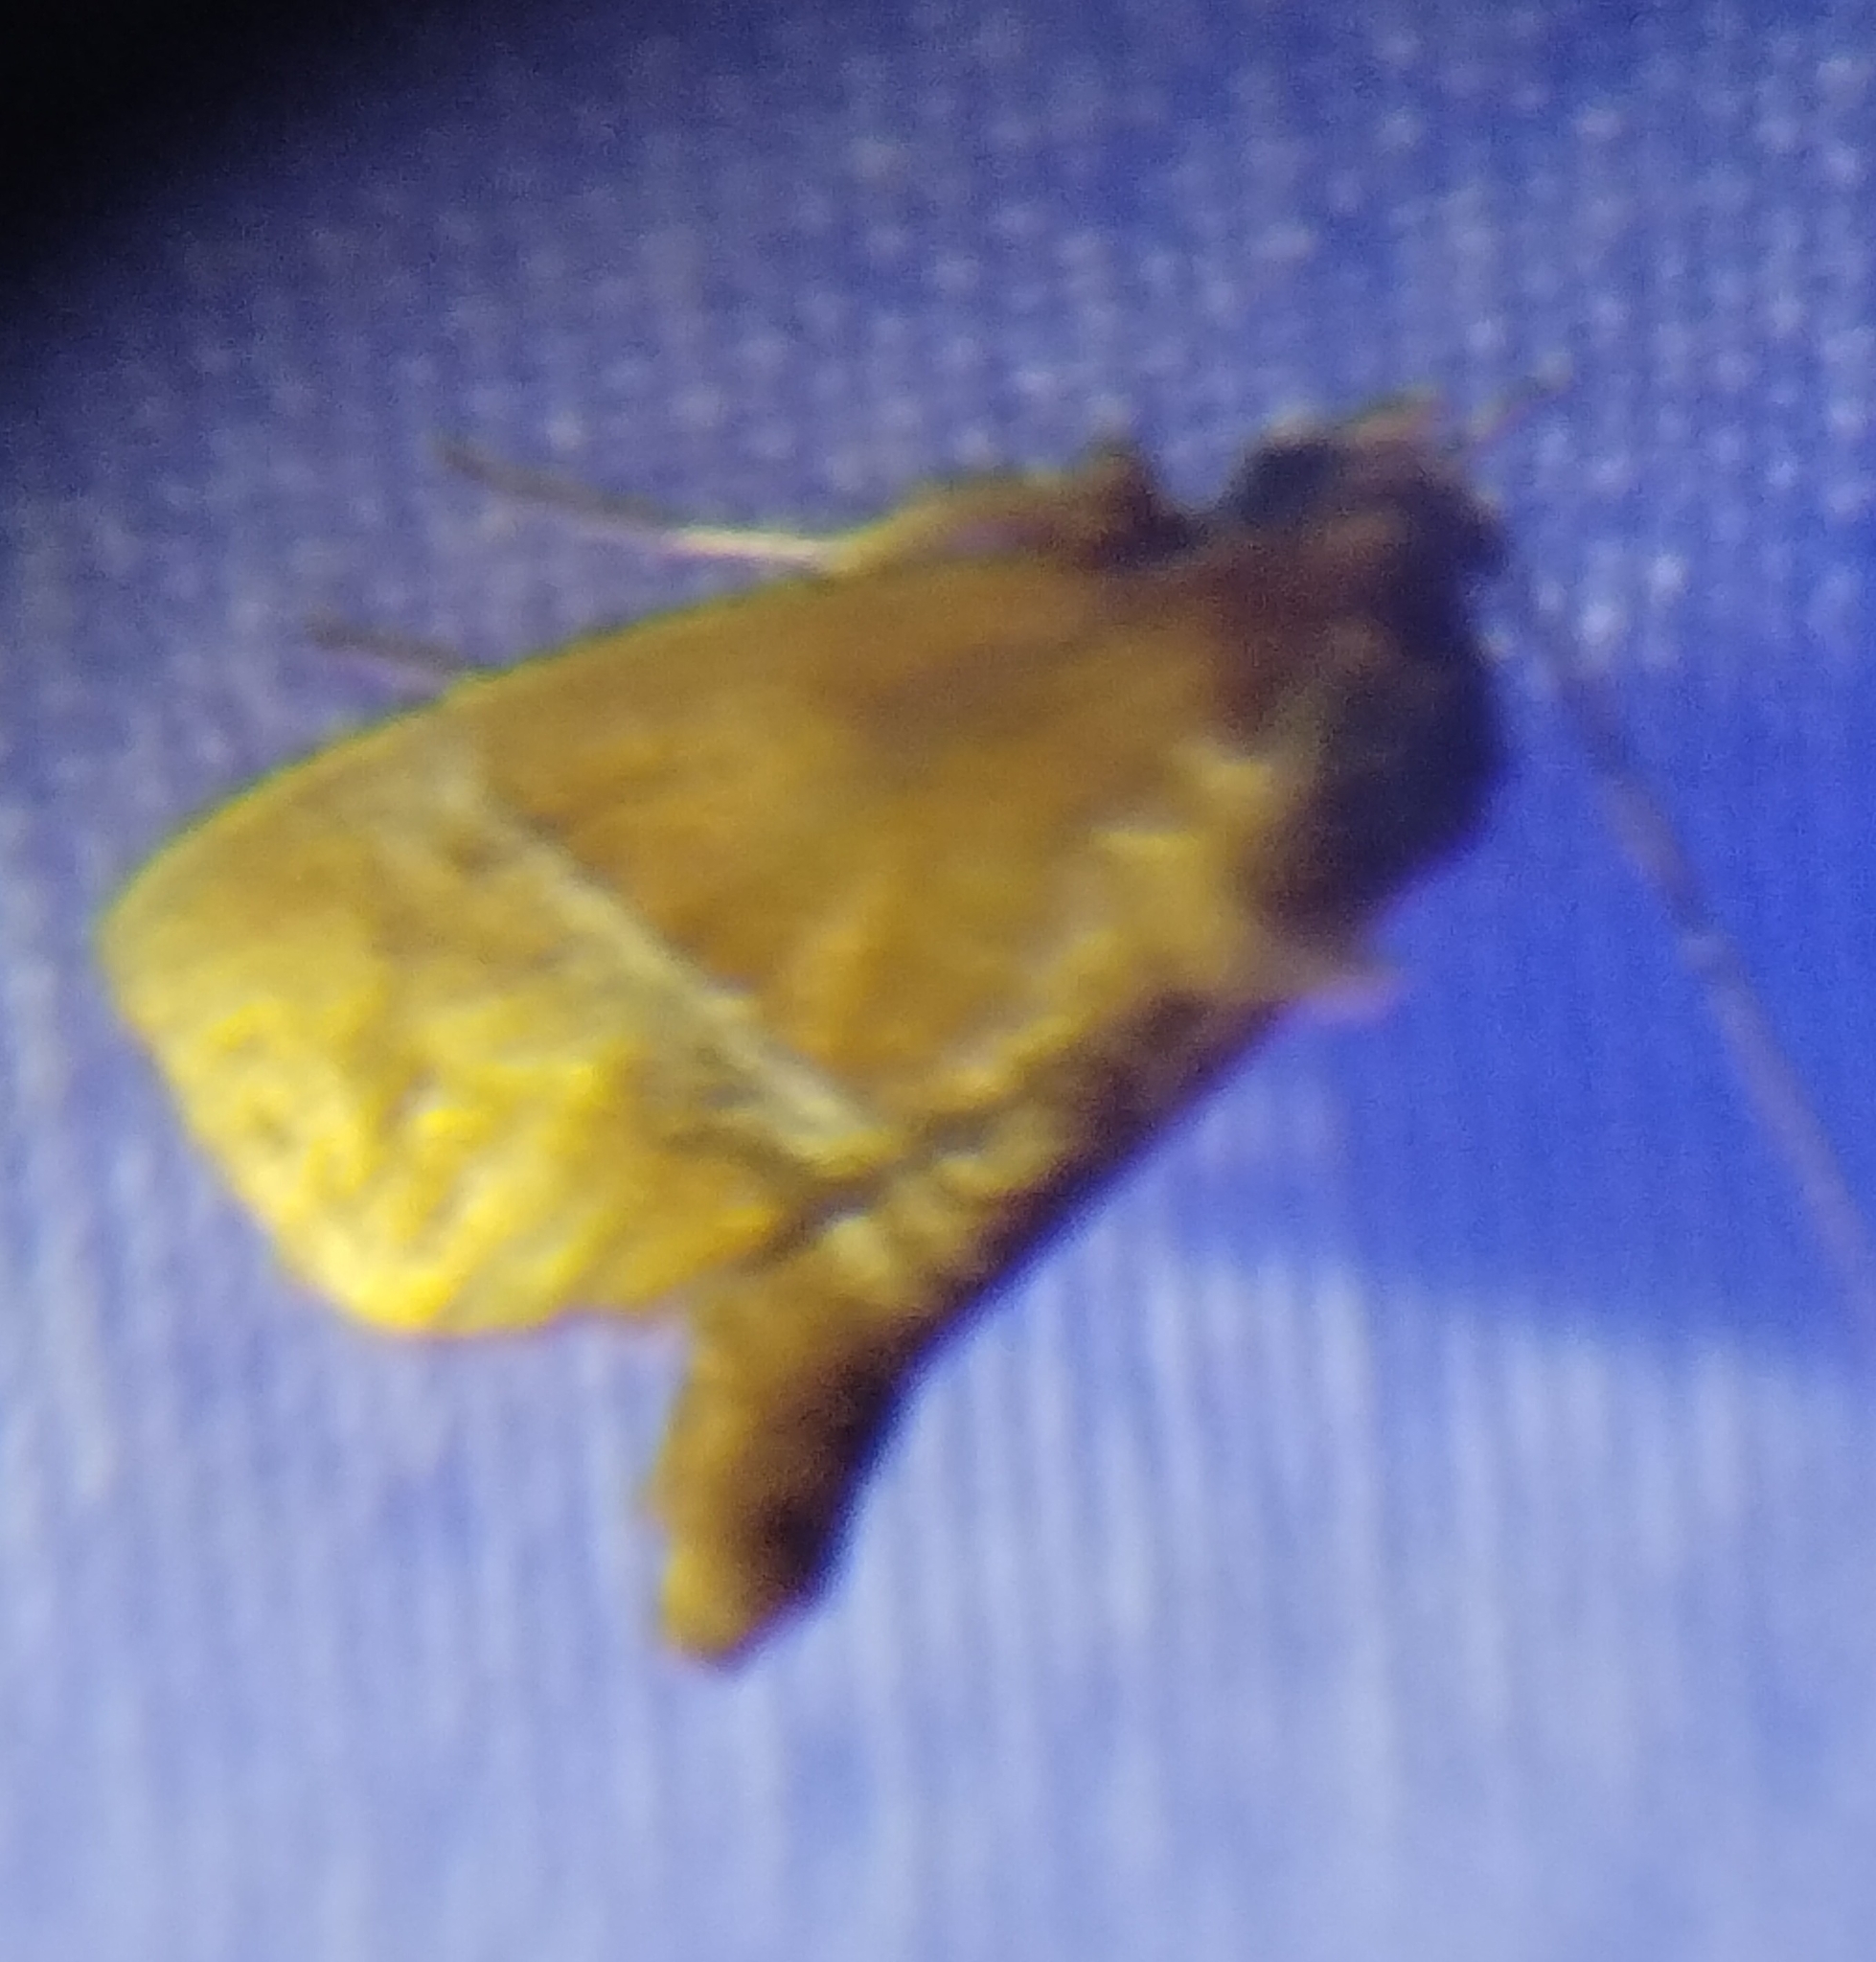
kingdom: Animalia
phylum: Arthropoda
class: Insecta
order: Lepidoptera
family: Limacodidae
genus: Lithacodes
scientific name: Lithacodes fasciola
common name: Yellow-shouldered slug moth
